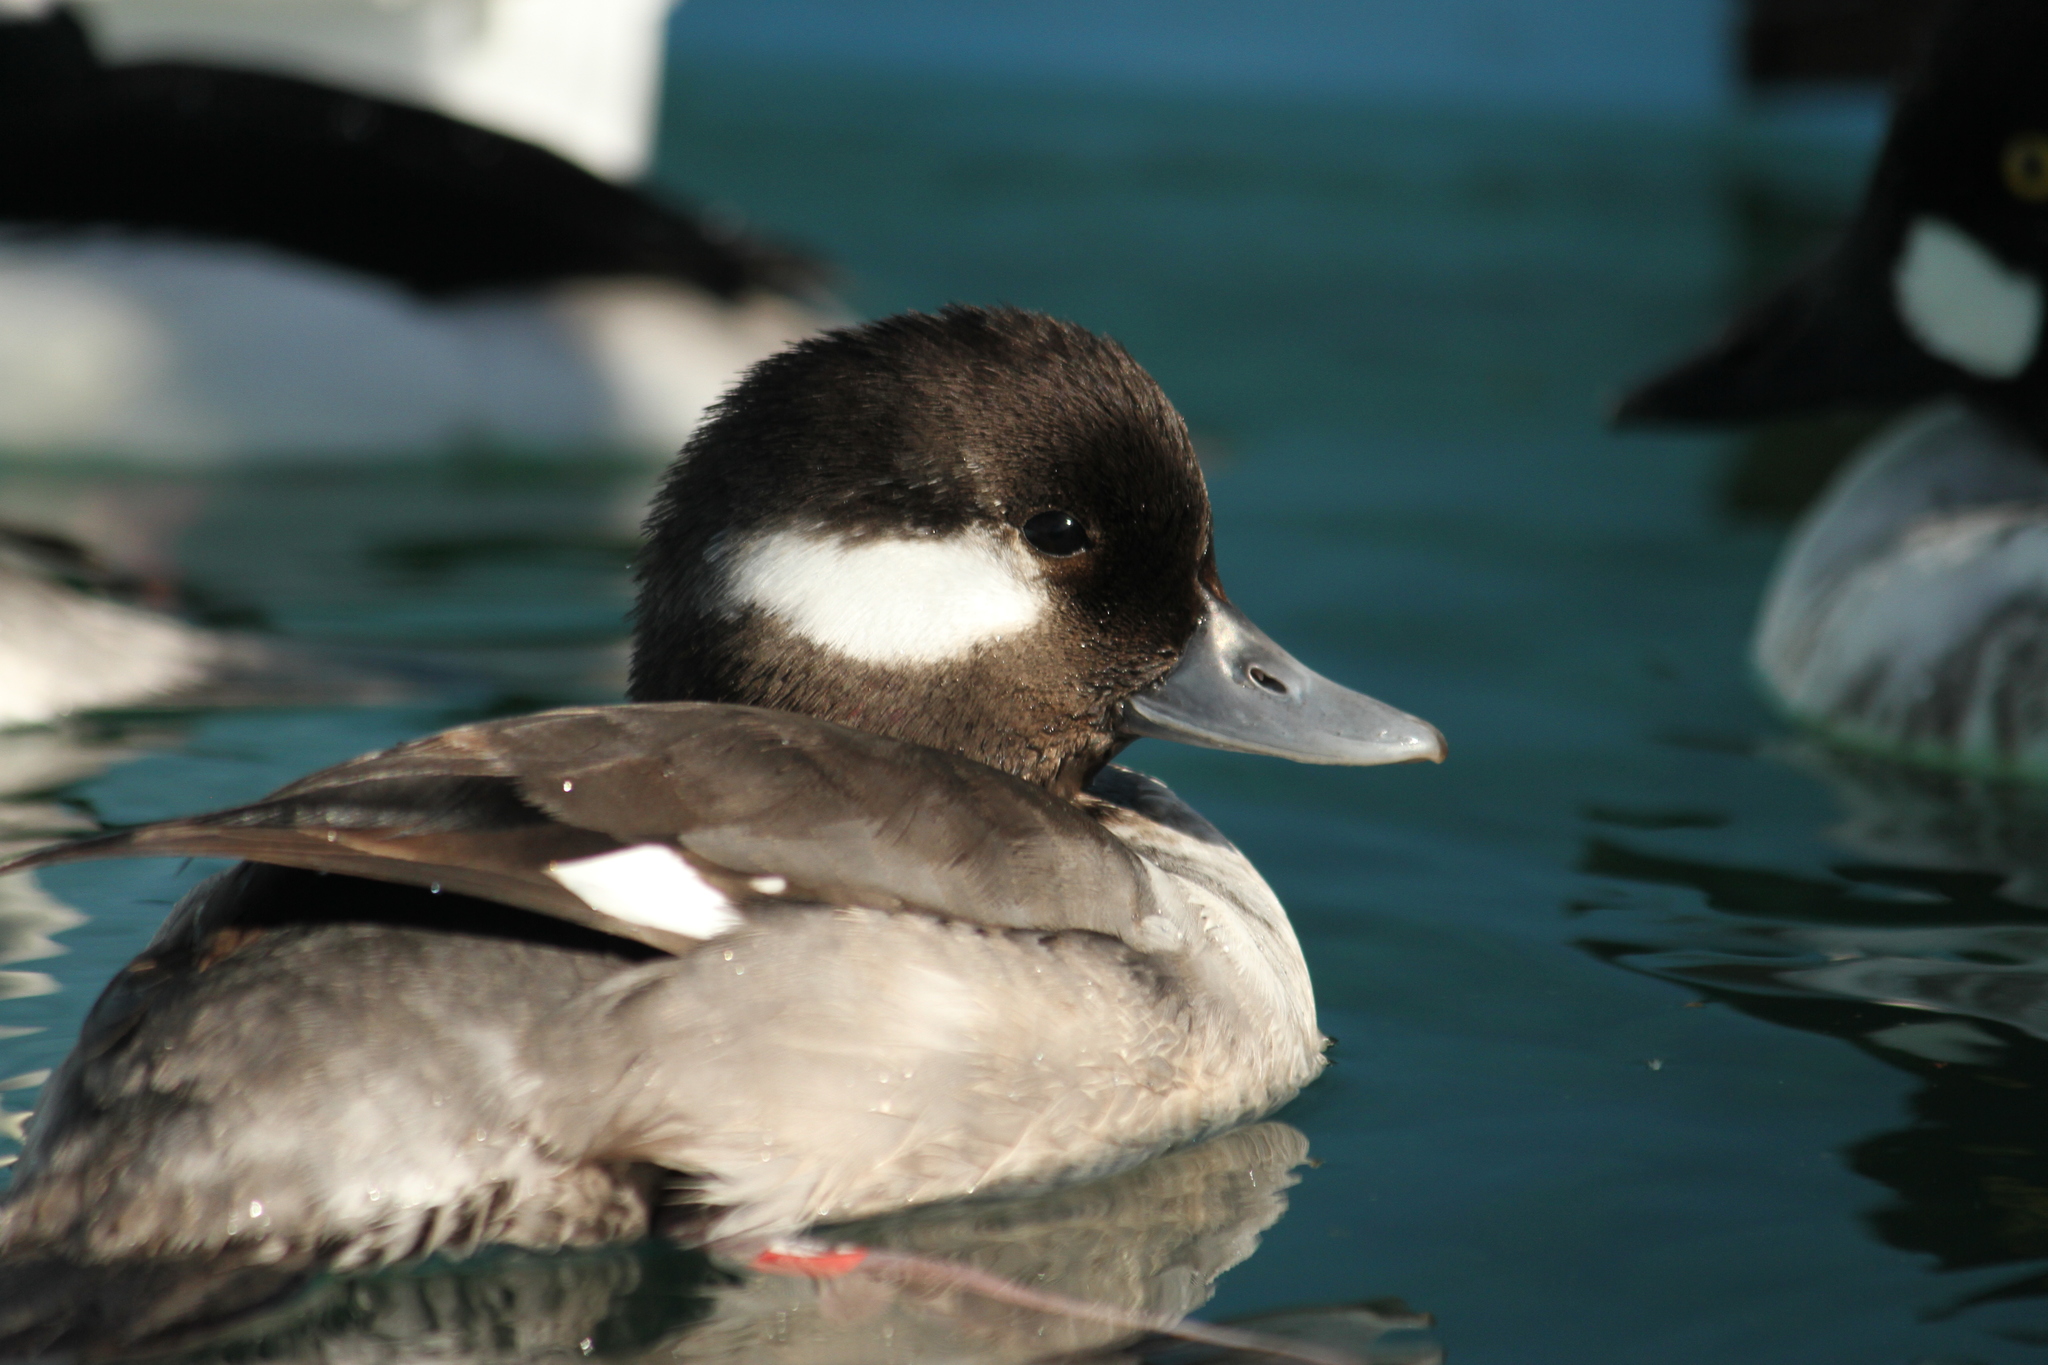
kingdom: Animalia
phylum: Chordata
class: Aves
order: Anseriformes
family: Anatidae
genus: Bucephala
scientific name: Bucephala albeola
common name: Bufflehead
